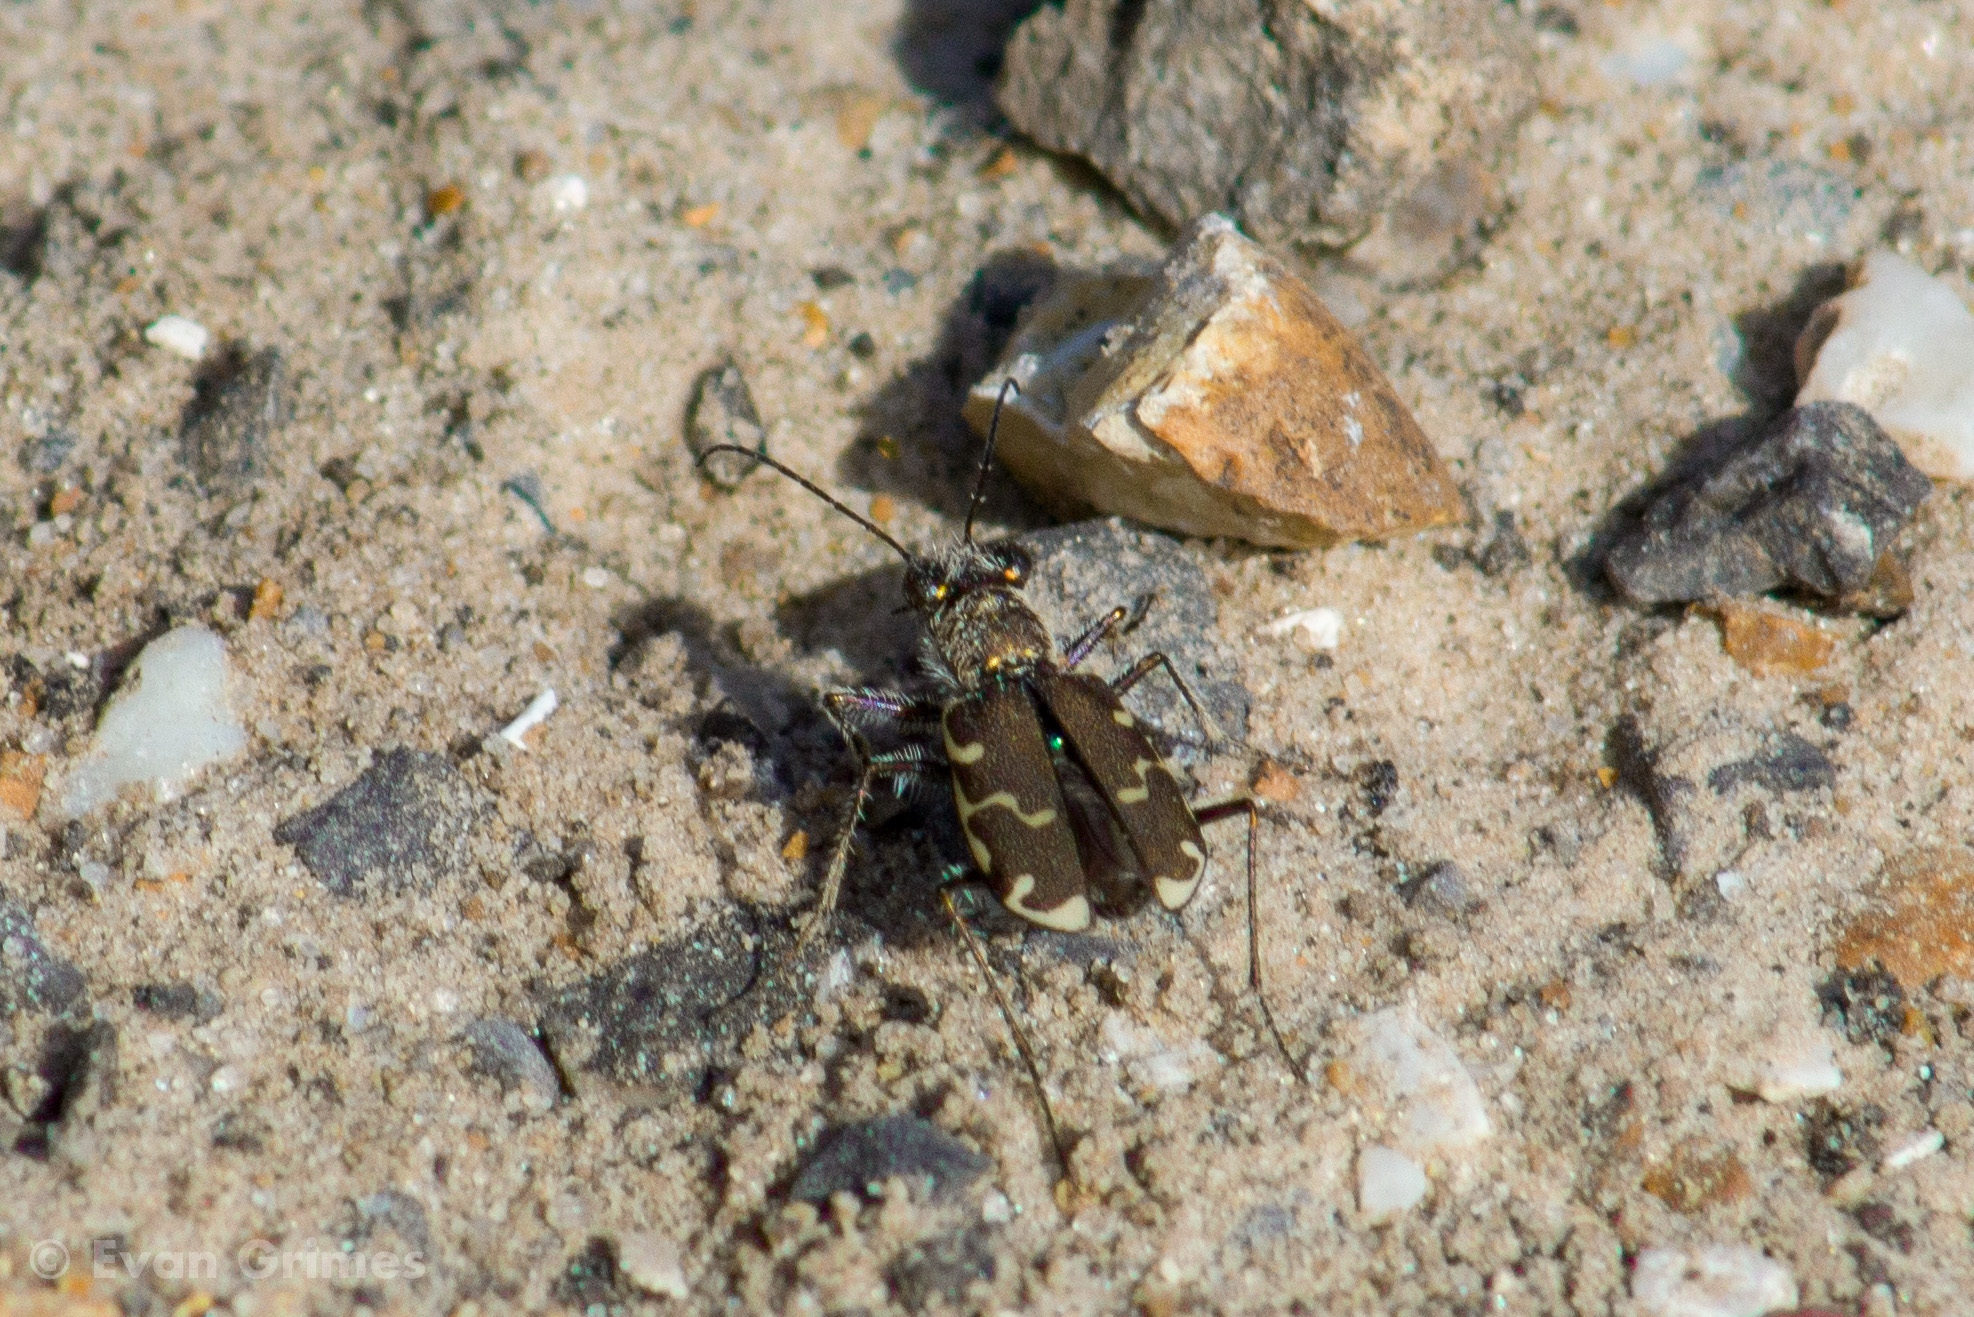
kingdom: Animalia
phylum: Arthropoda
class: Insecta
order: Coleoptera
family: Carabidae
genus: Cicindela
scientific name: Cicindela repanda
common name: Bronzed tiger beetle
